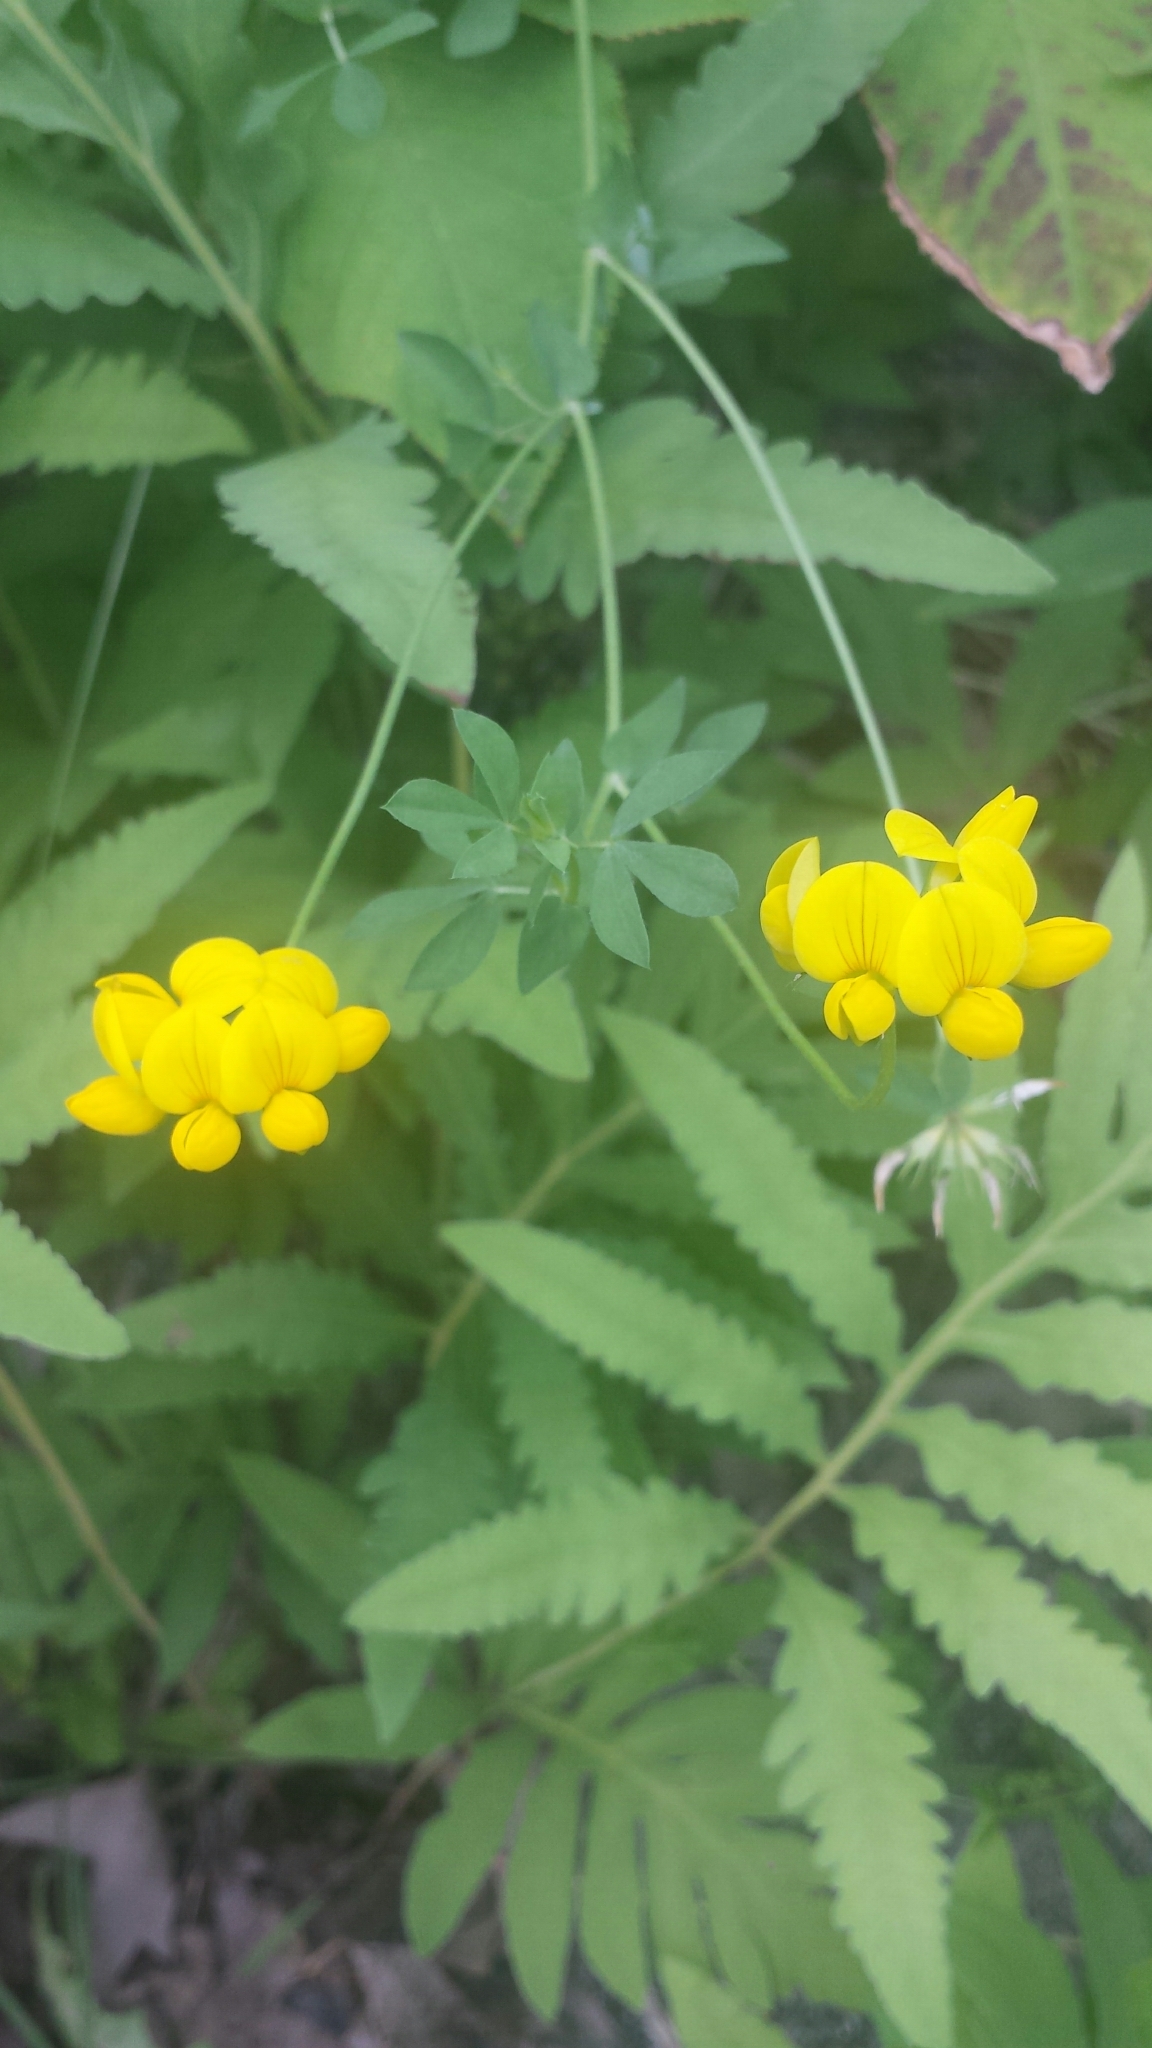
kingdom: Plantae
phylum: Tracheophyta
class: Magnoliopsida
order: Fabales
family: Fabaceae
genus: Lotus
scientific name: Lotus corniculatus
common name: Common bird's-foot-trefoil
